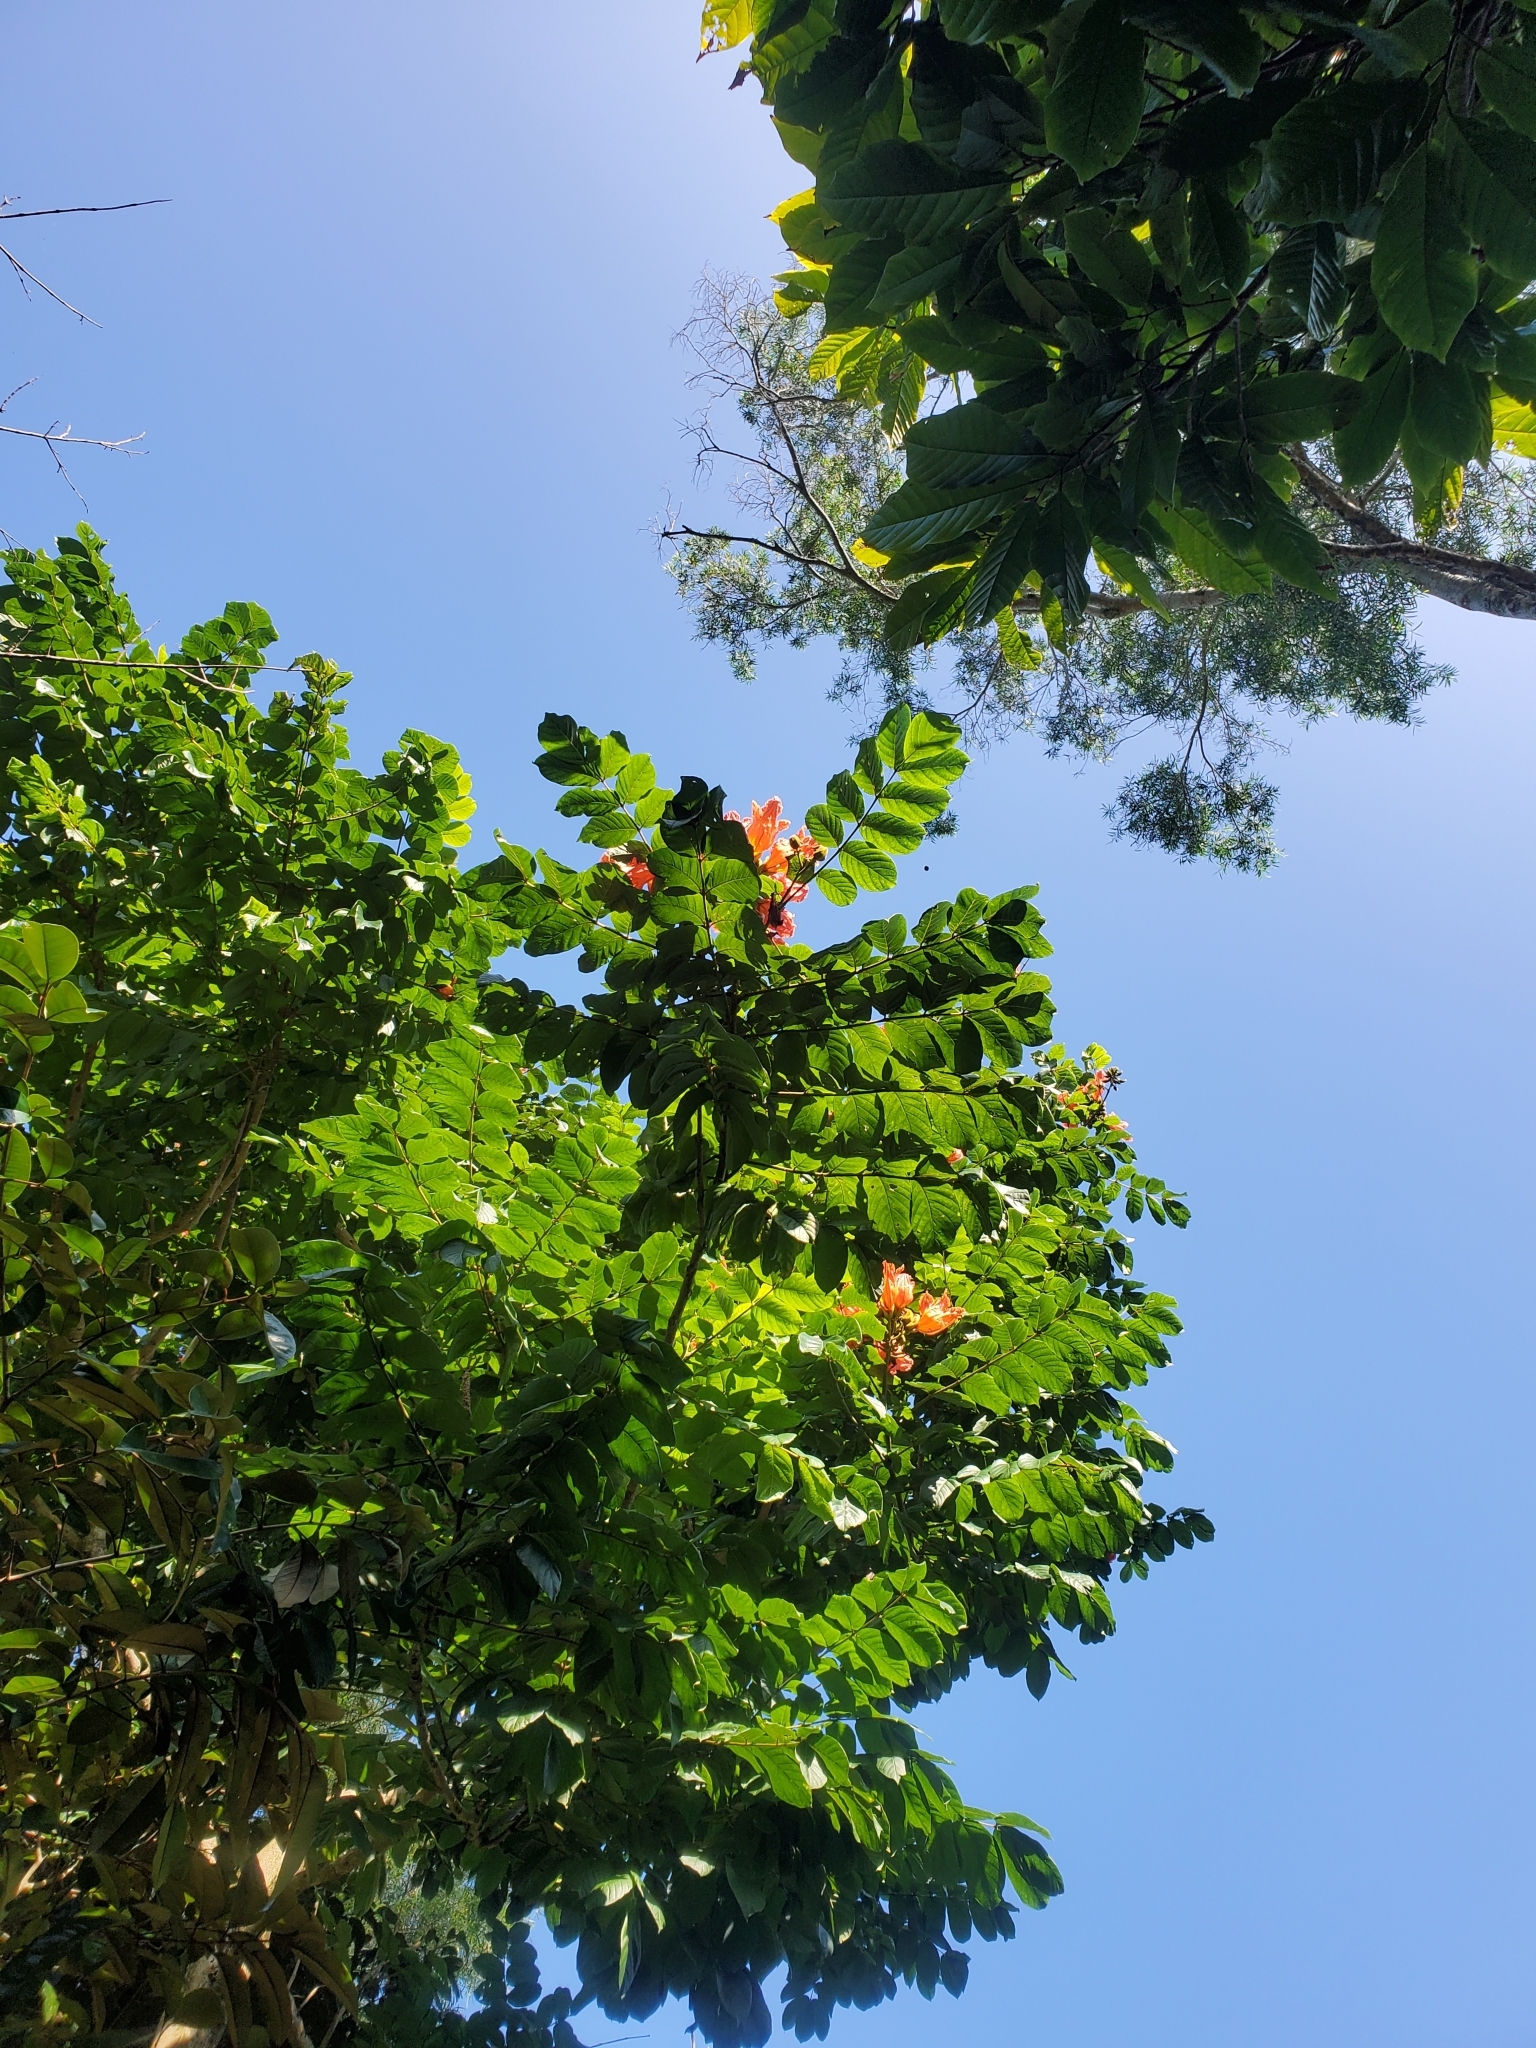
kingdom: Plantae
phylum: Tracheophyta
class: Magnoliopsida
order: Lamiales
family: Bignoniaceae
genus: Spathodea
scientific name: Spathodea campanulata
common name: African tuliptree
